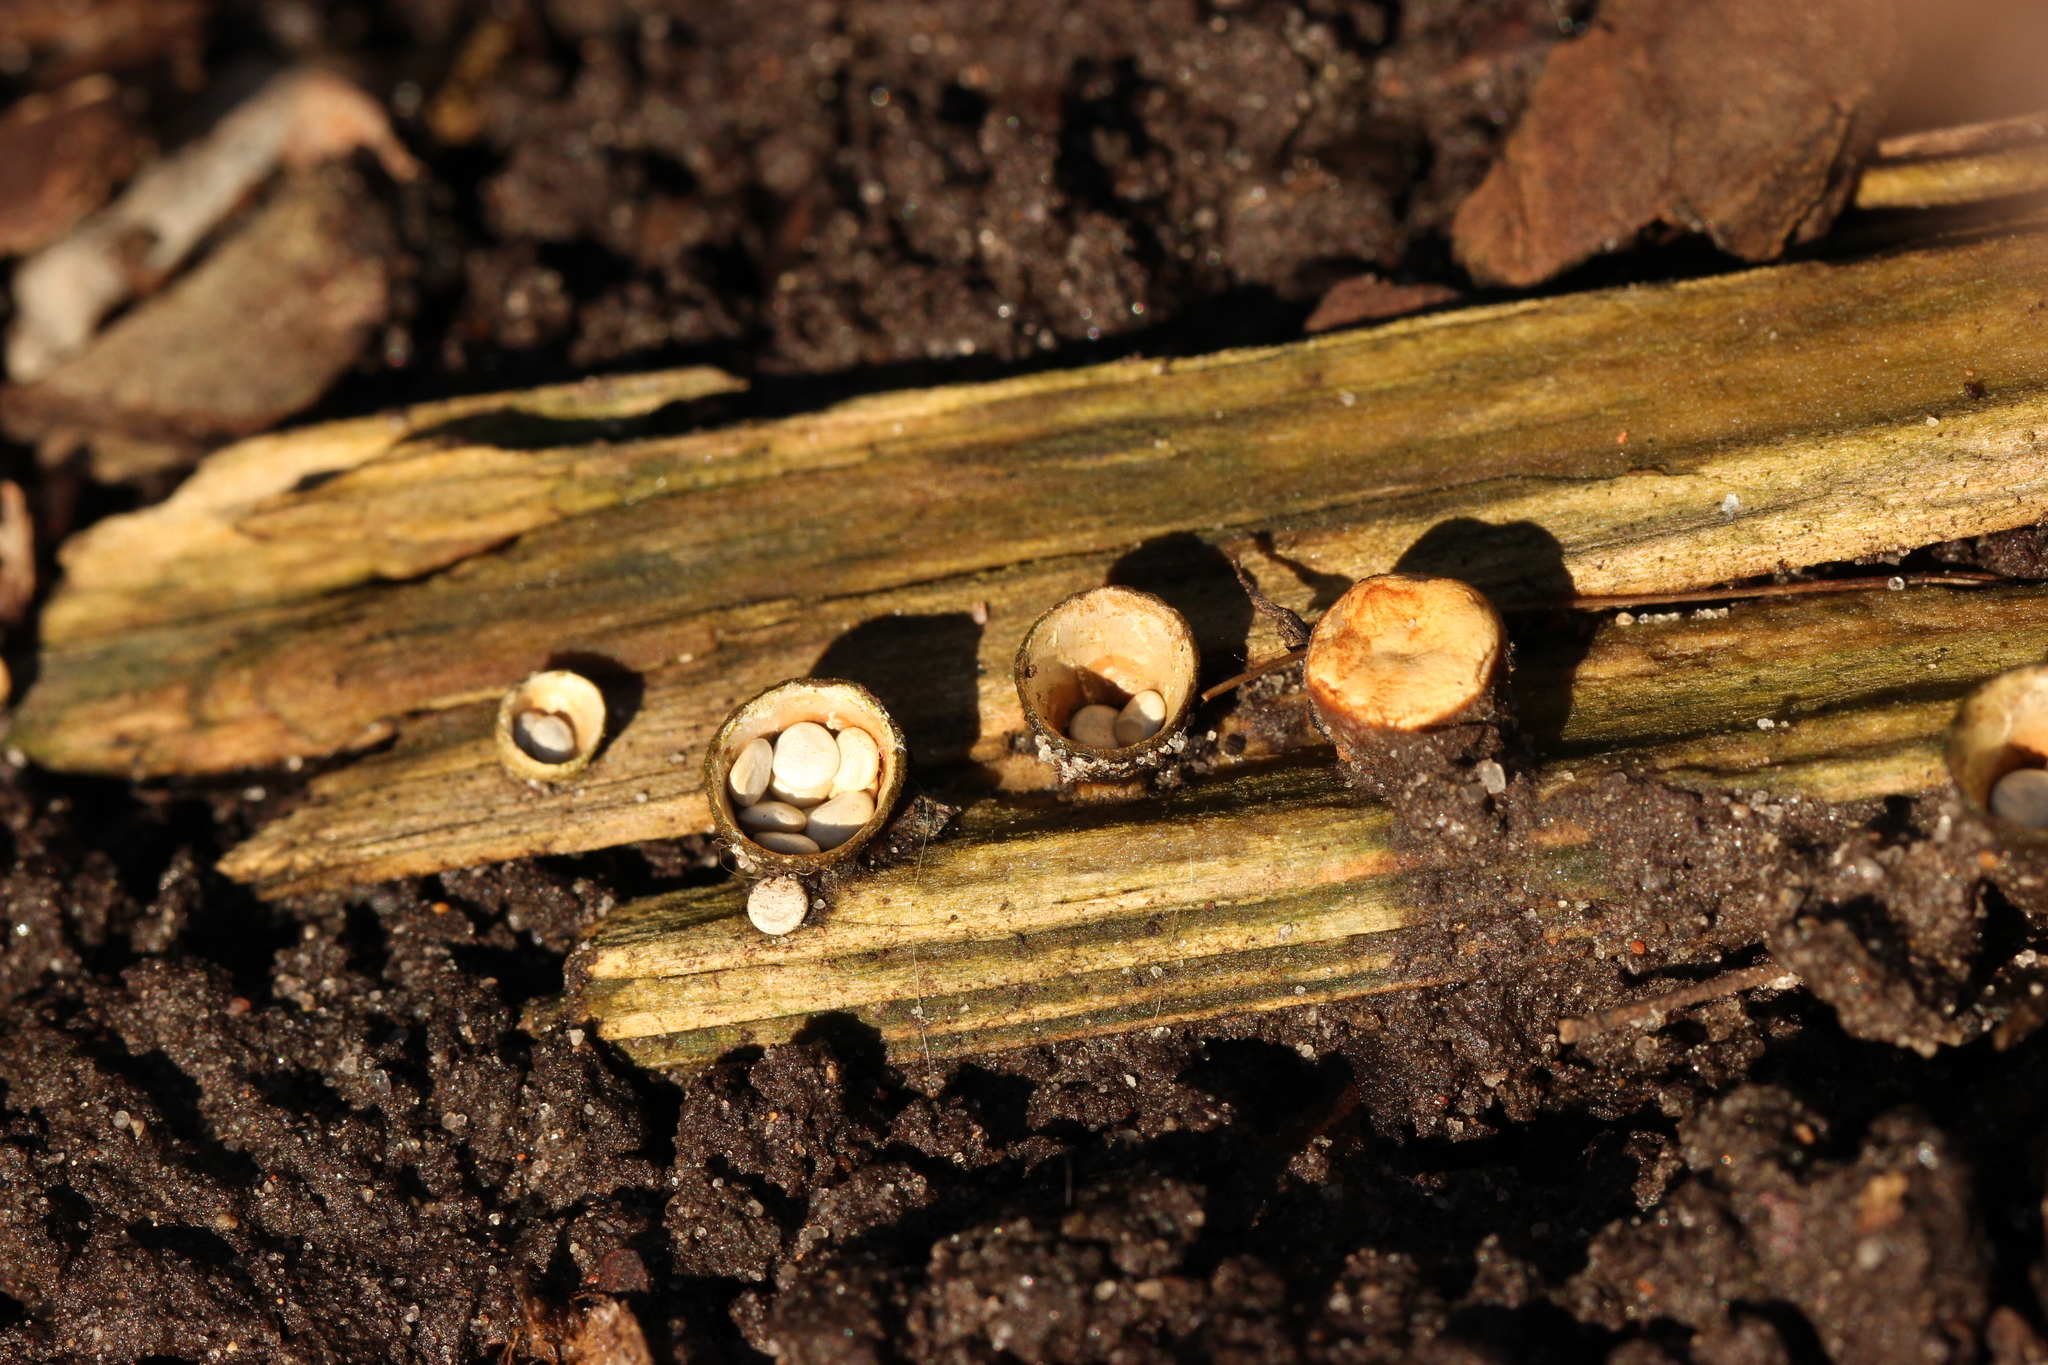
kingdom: Fungi
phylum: Basidiomycota
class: Agaricomycetes
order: Agaricales
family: Nidulariaceae
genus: Crucibulum
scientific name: Crucibulum laeve
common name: Common bird's nest
